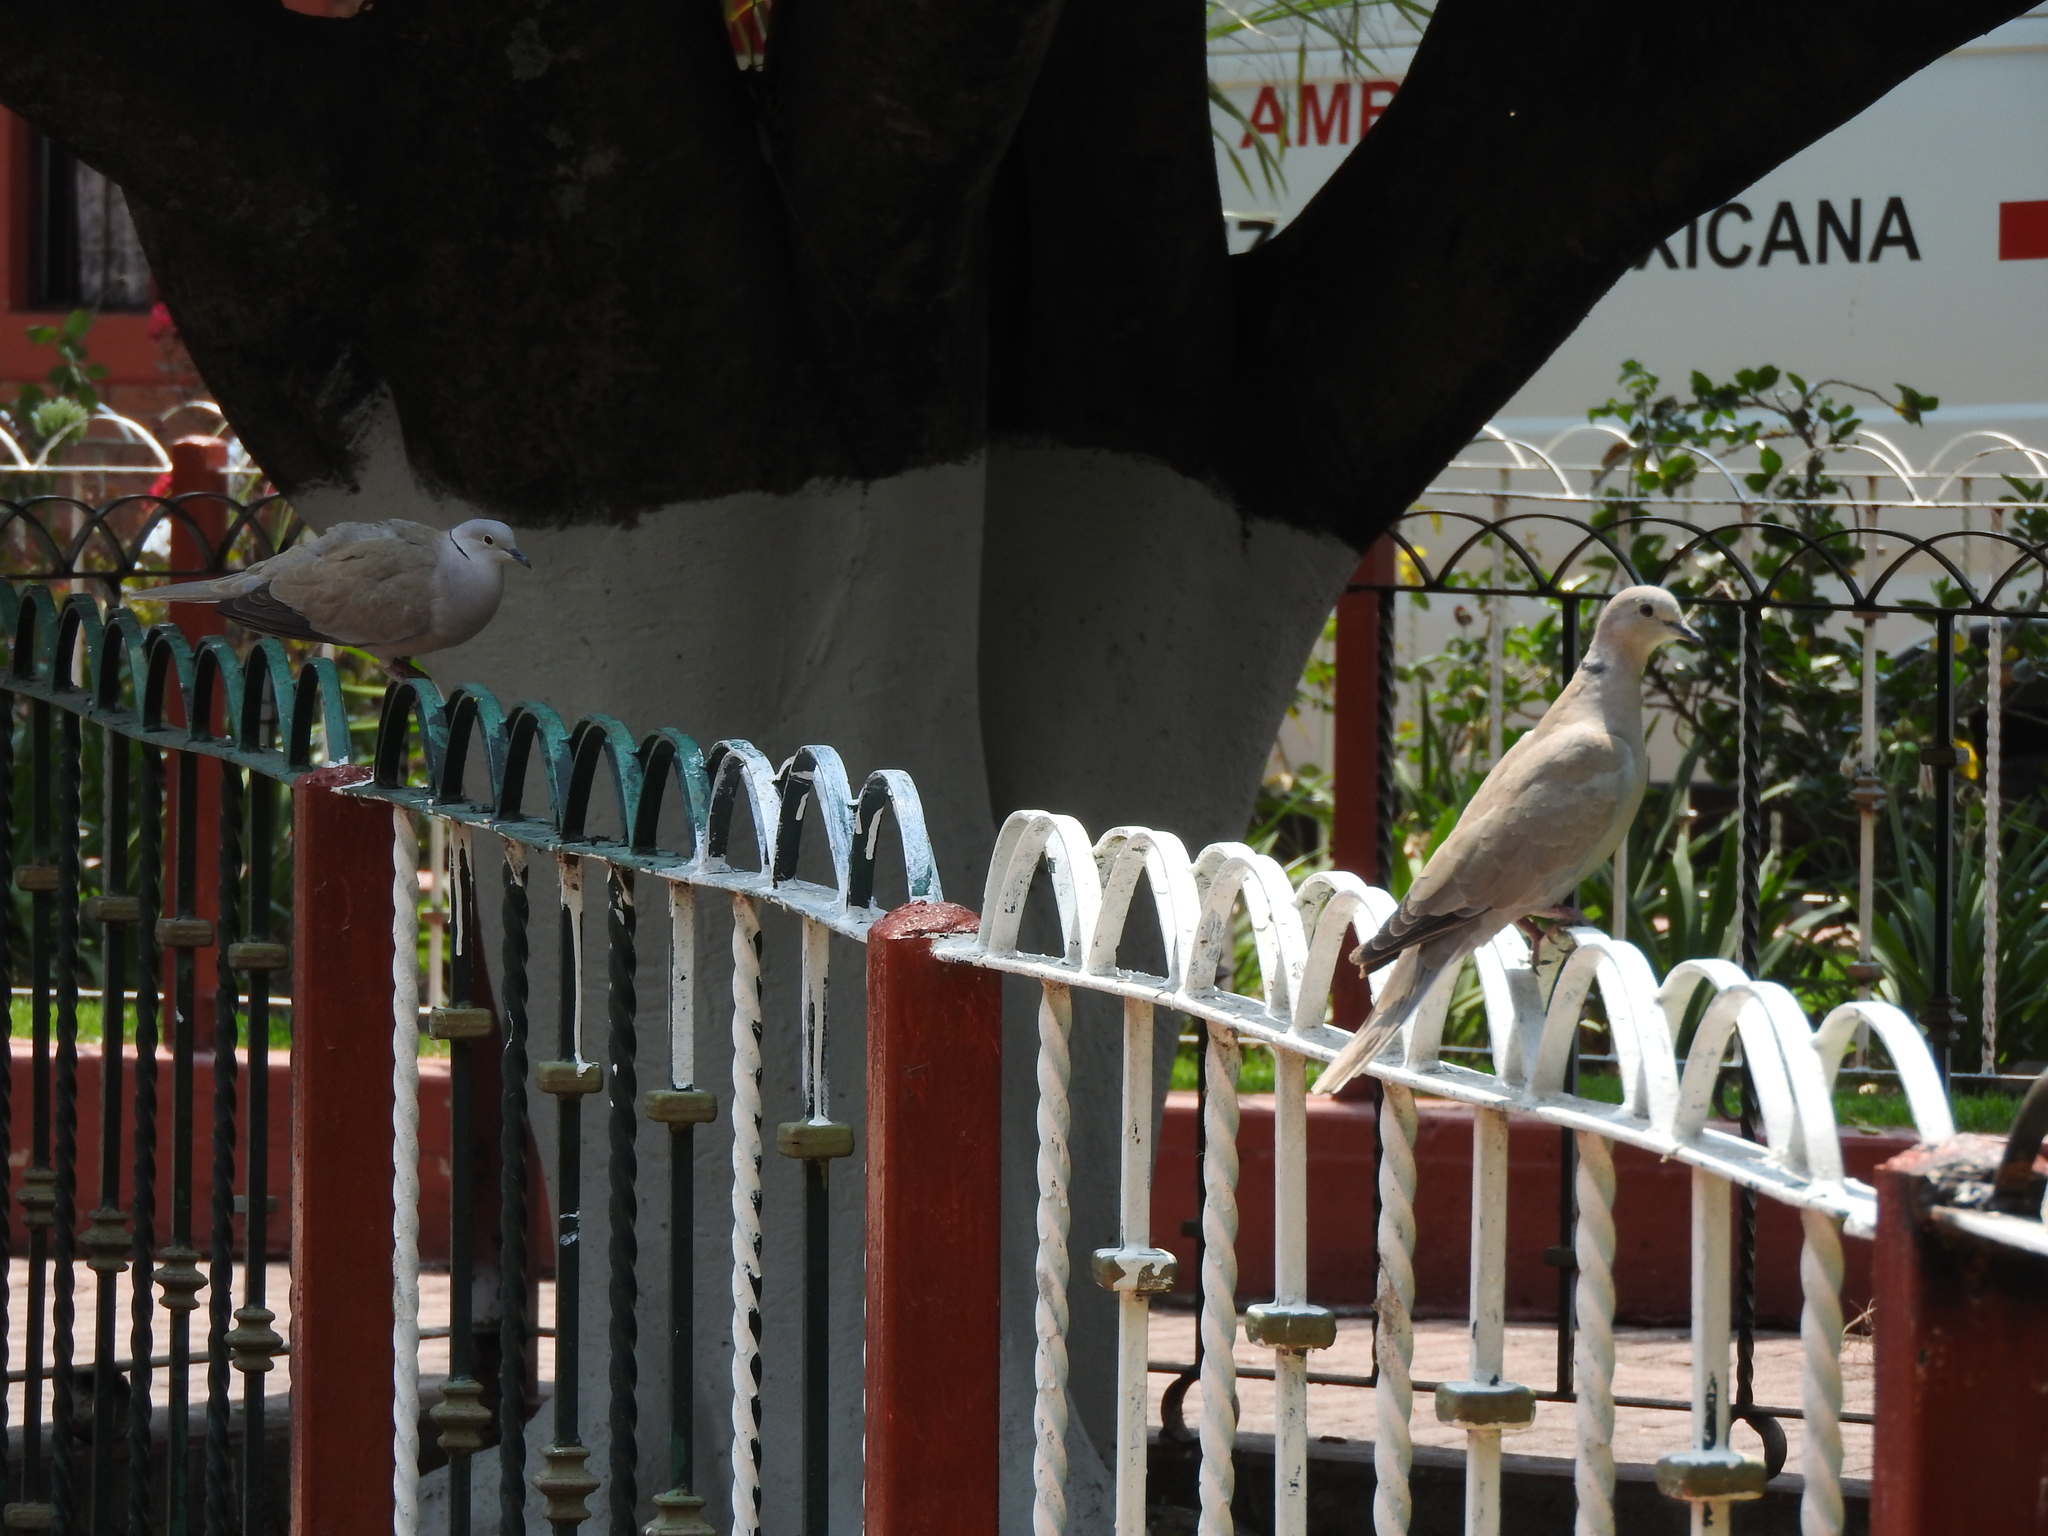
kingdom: Animalia
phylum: Chordata
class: Aves
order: Columbiformes
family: Columbidae
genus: Streptopelia
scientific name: Streptopelia decaocto
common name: Eurasian collared dove
